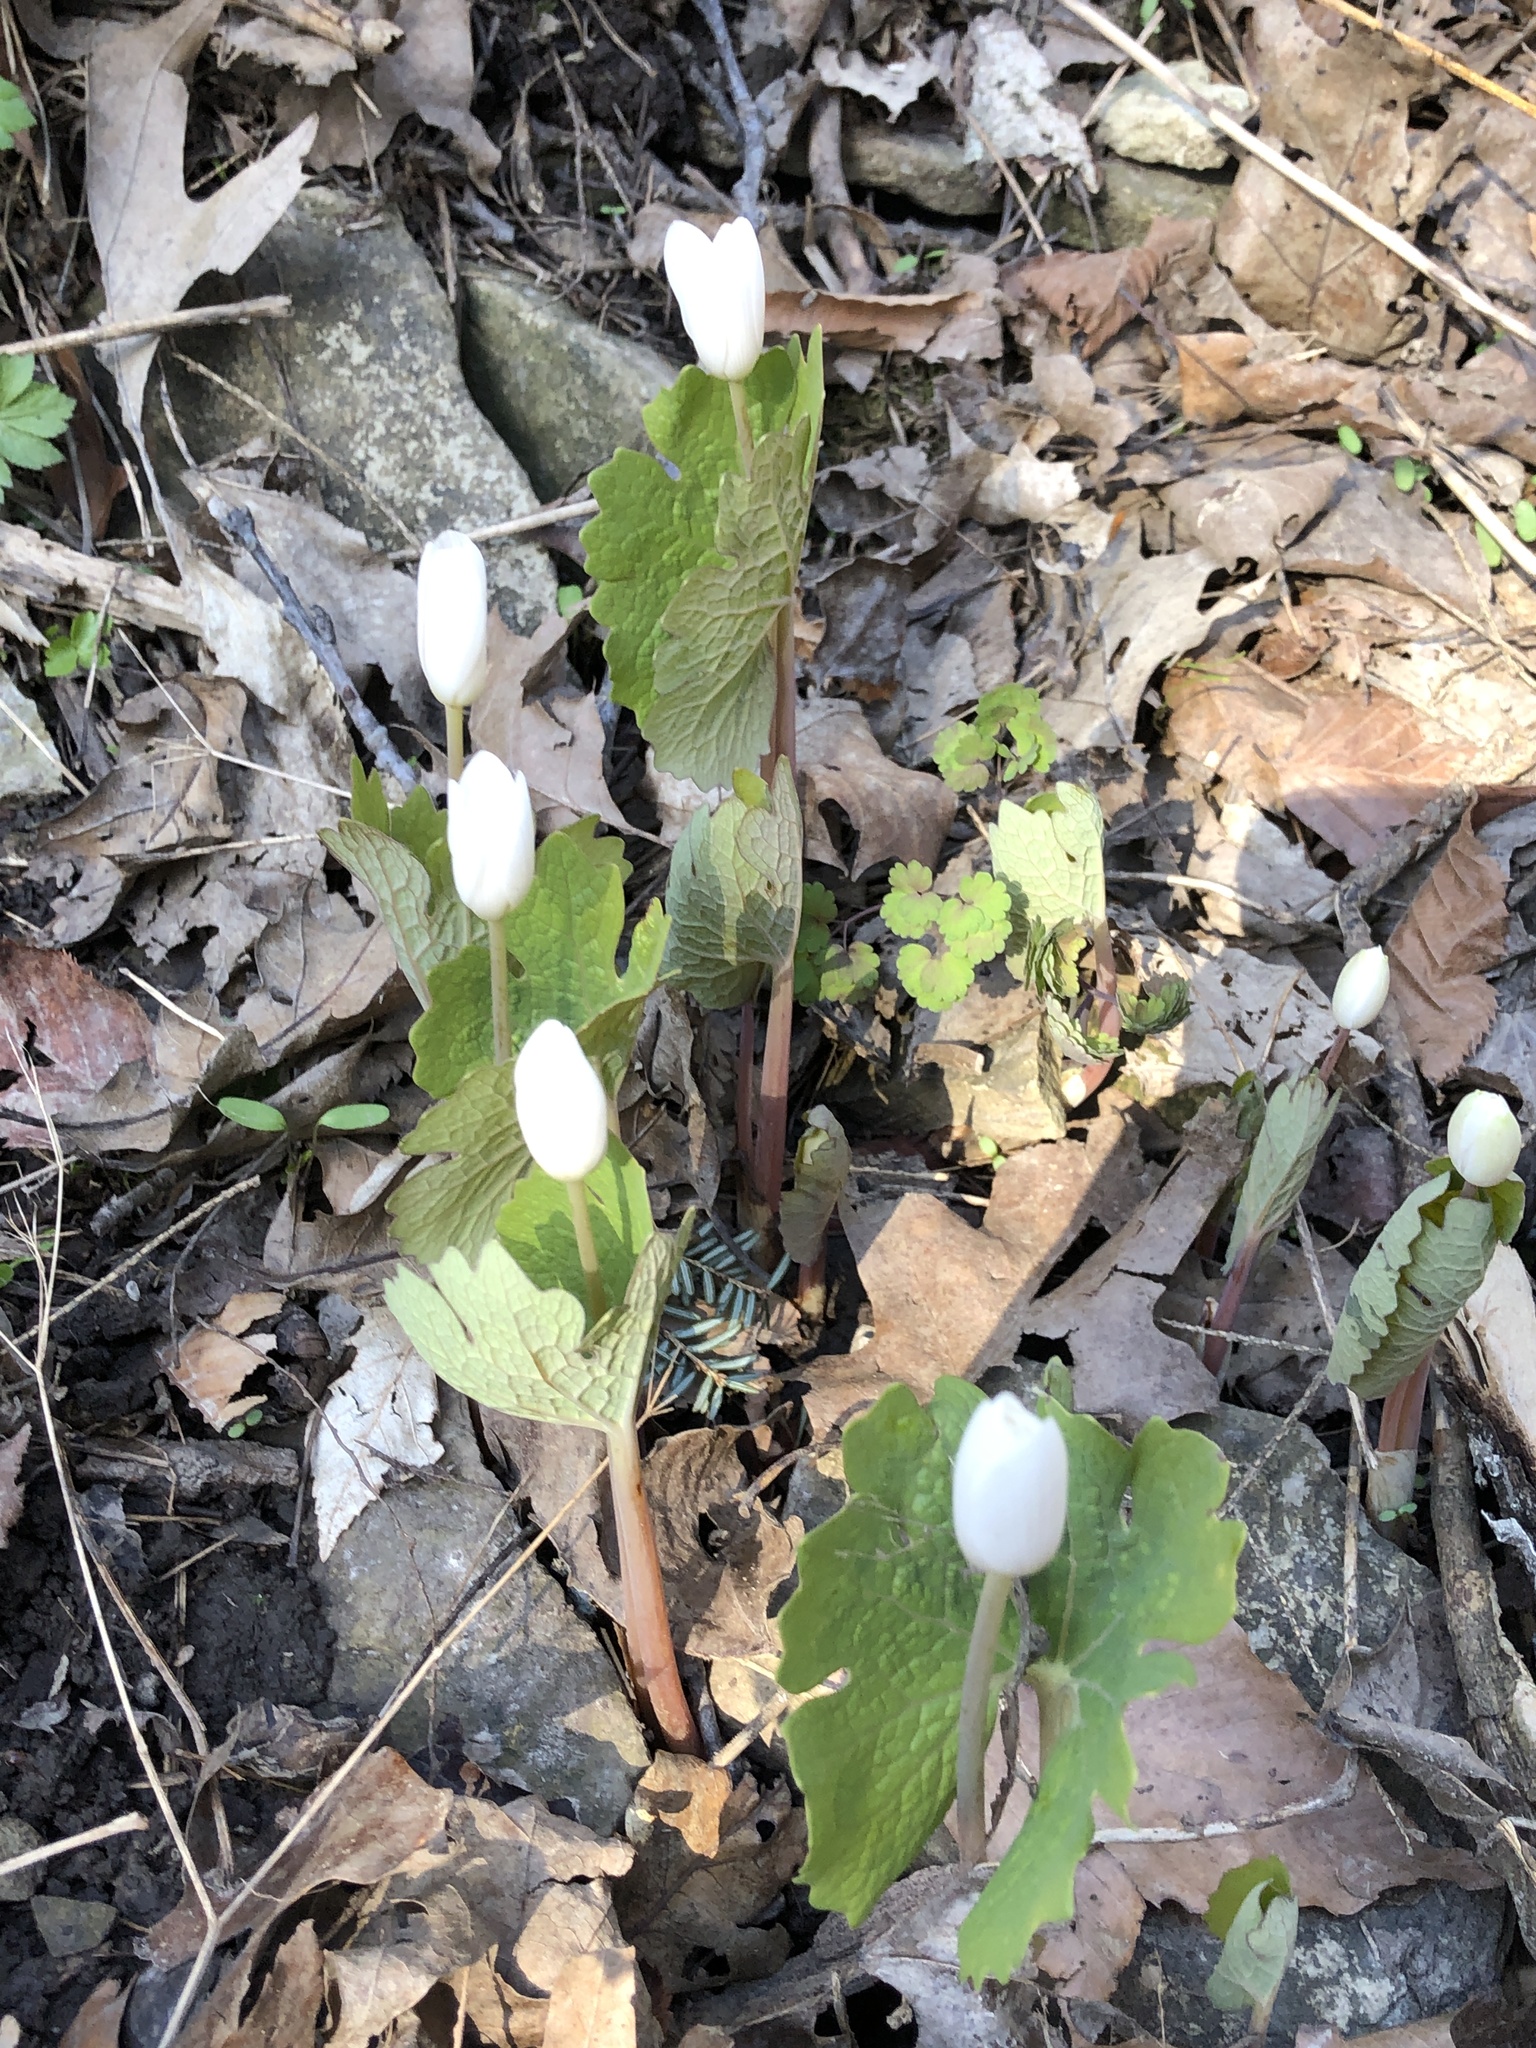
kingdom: Plantae
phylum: Tracheophyta
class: Magnoliopsida
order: Ranunculales
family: Papaveraceae
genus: Sanguinaria
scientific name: Sanguinaria canadensis
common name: Bloodroot
